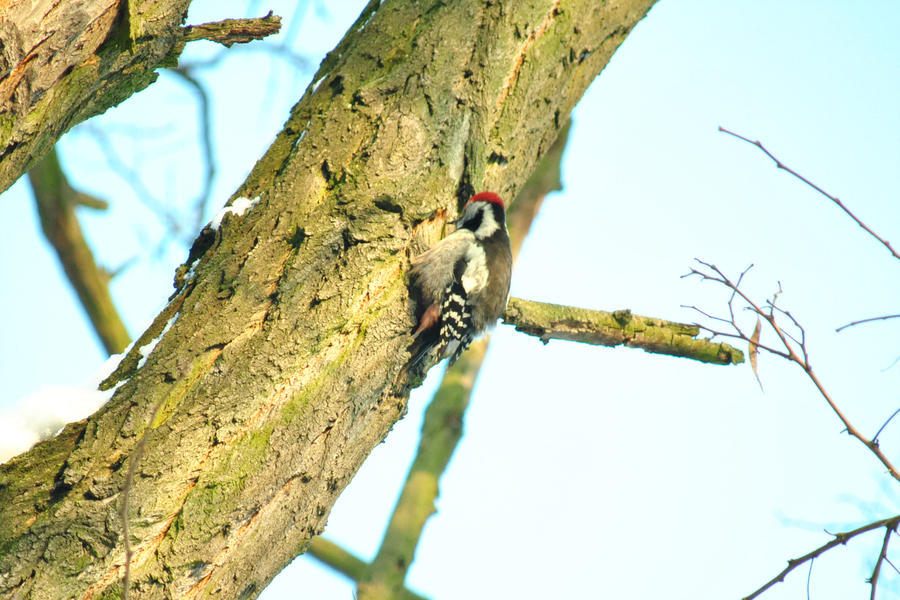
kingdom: Animalia
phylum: Chordata
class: Aves
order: Piciformes
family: Picidae
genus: Dendrocoptes
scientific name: Dendrocoptes medius
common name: Middle spotted woodpecker
